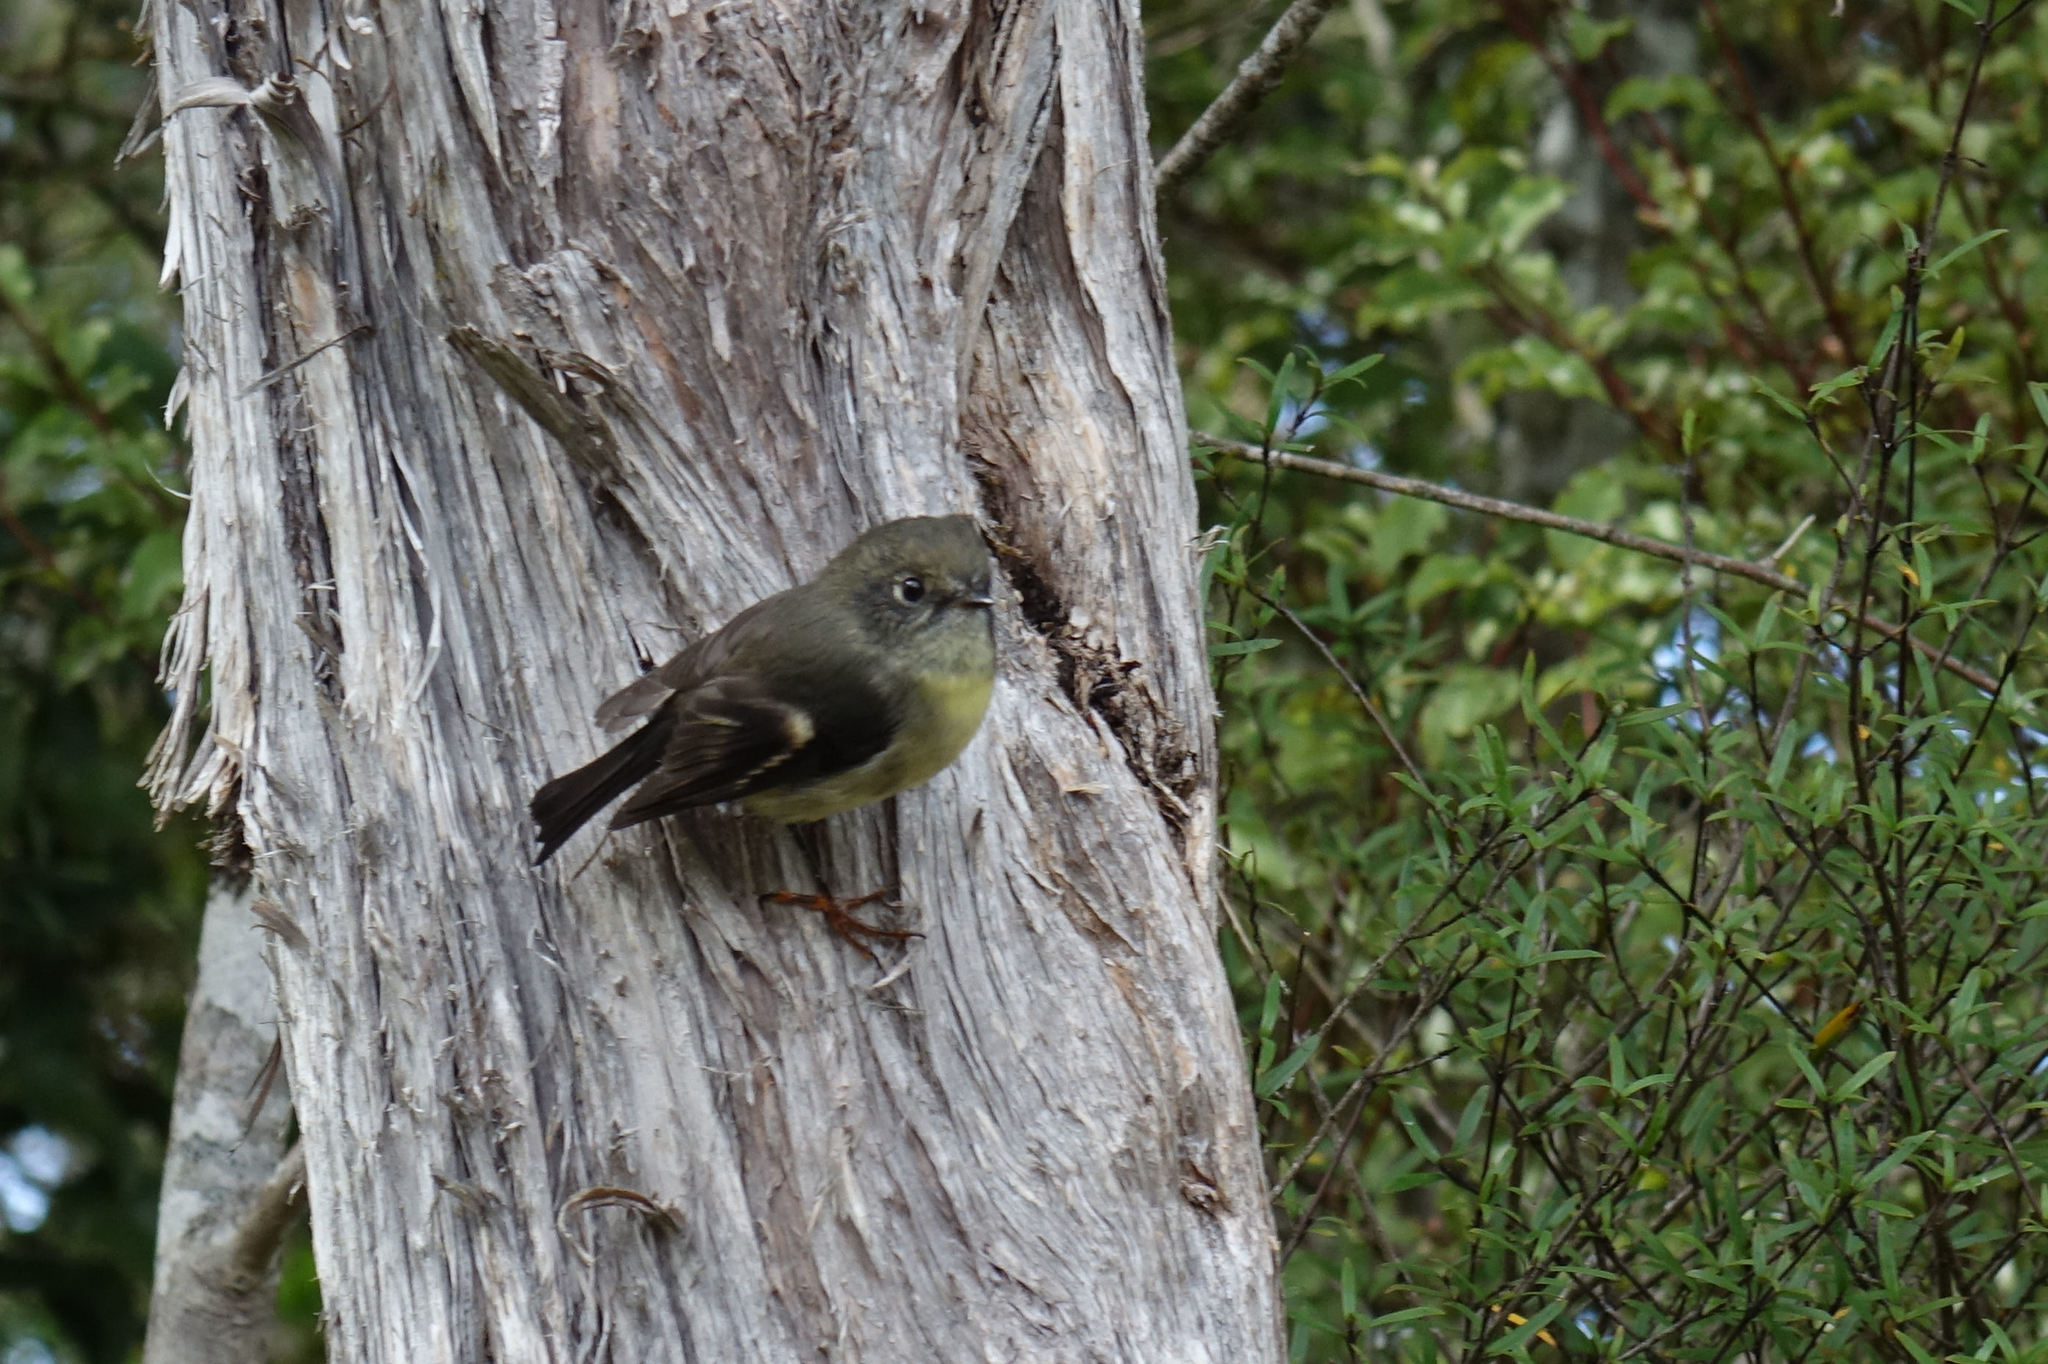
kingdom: Animalia
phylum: Chordata
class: Aves
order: Passeriformes
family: Petroicidae
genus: Petroica
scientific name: Petroica macrocephala
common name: Tomtit
